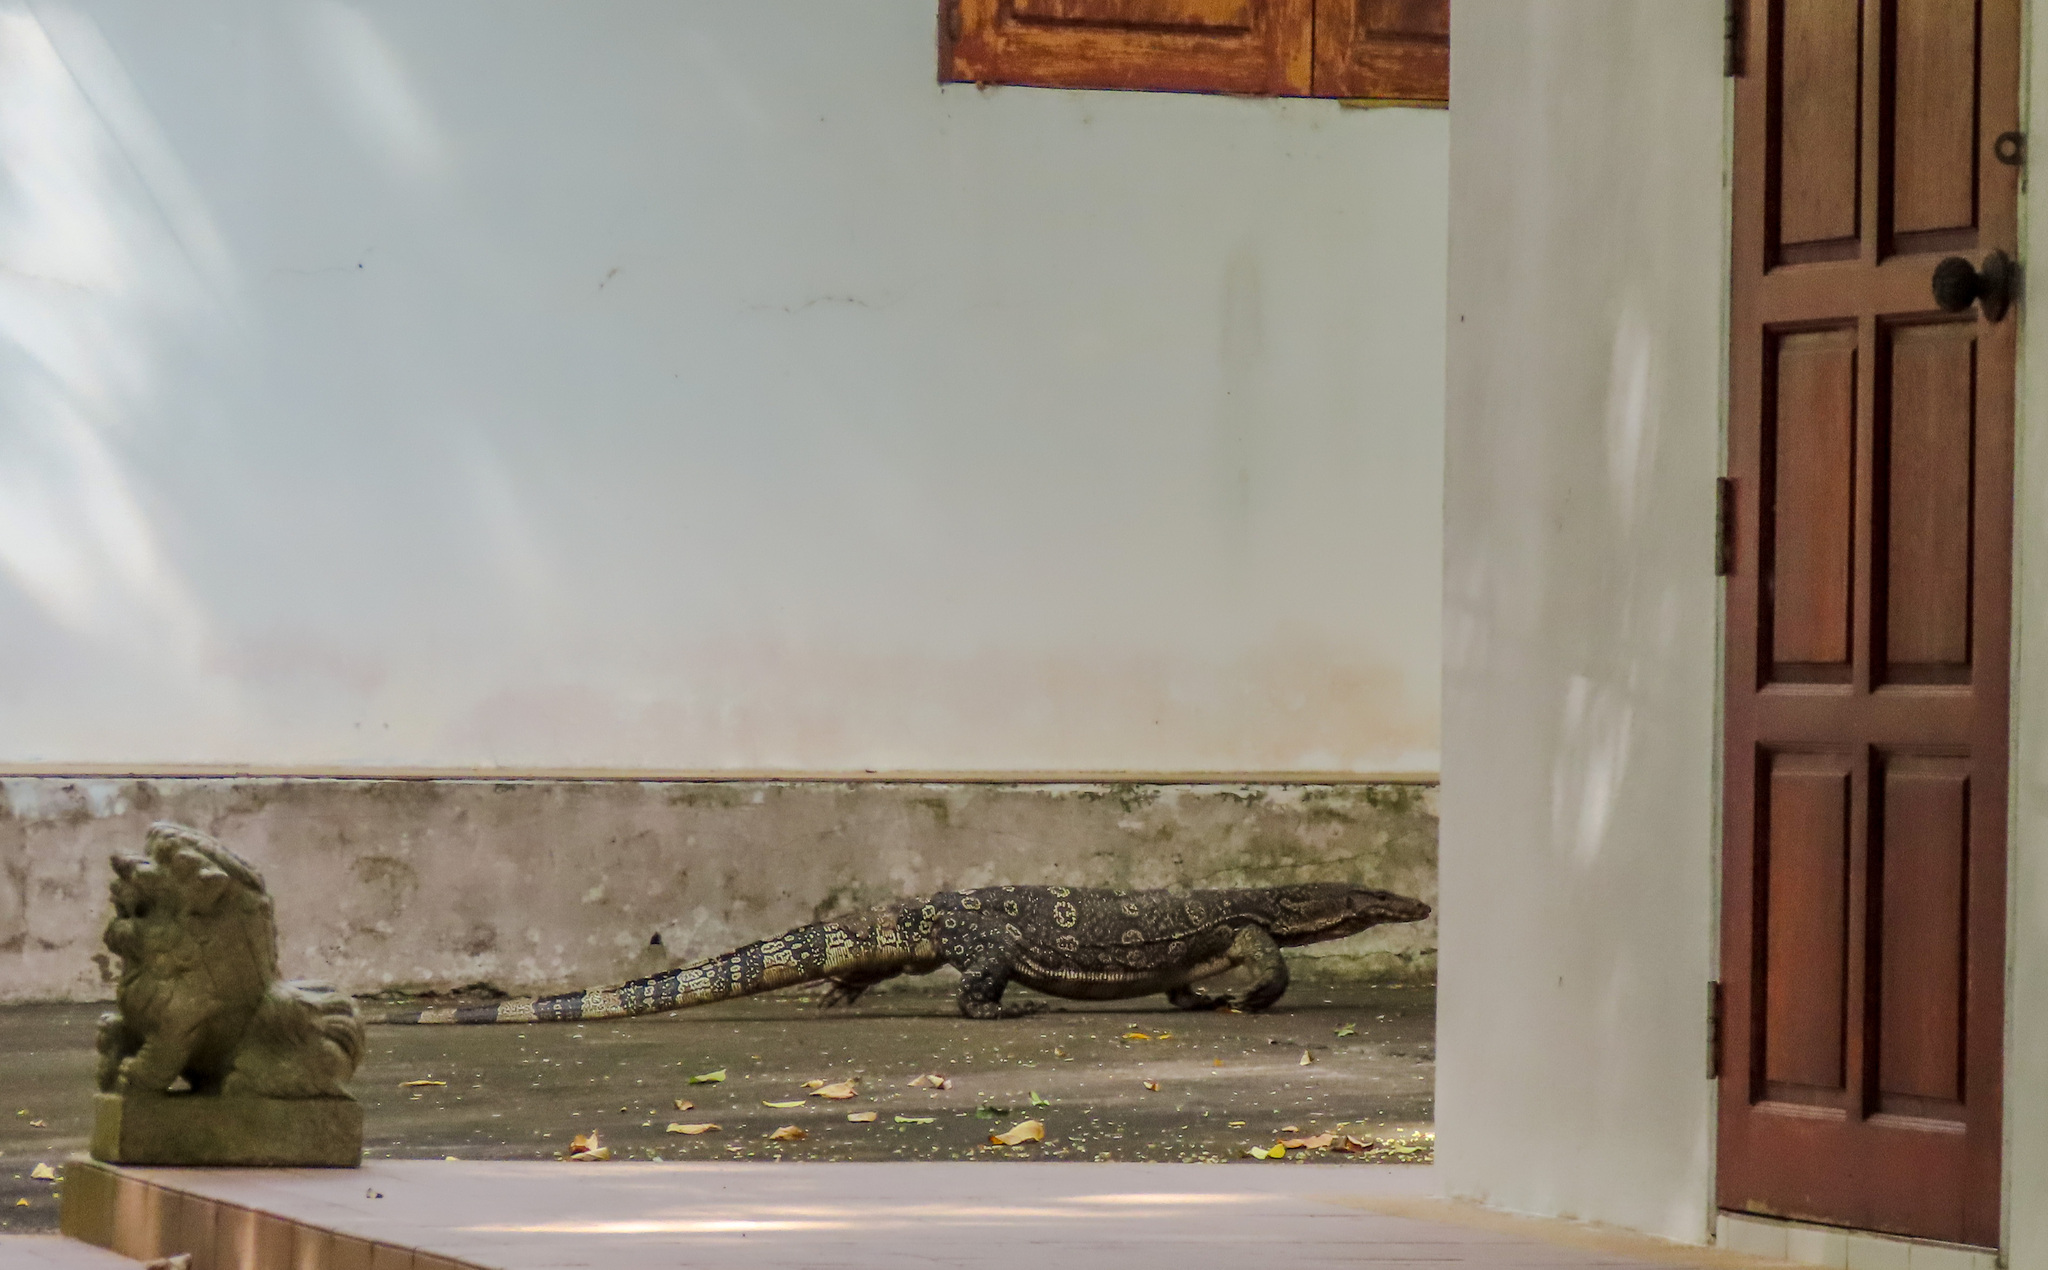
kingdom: Animalia
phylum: Chordata
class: Squamata
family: Varanidae
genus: Varanus
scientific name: Varanus salvator
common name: Common water monitor
